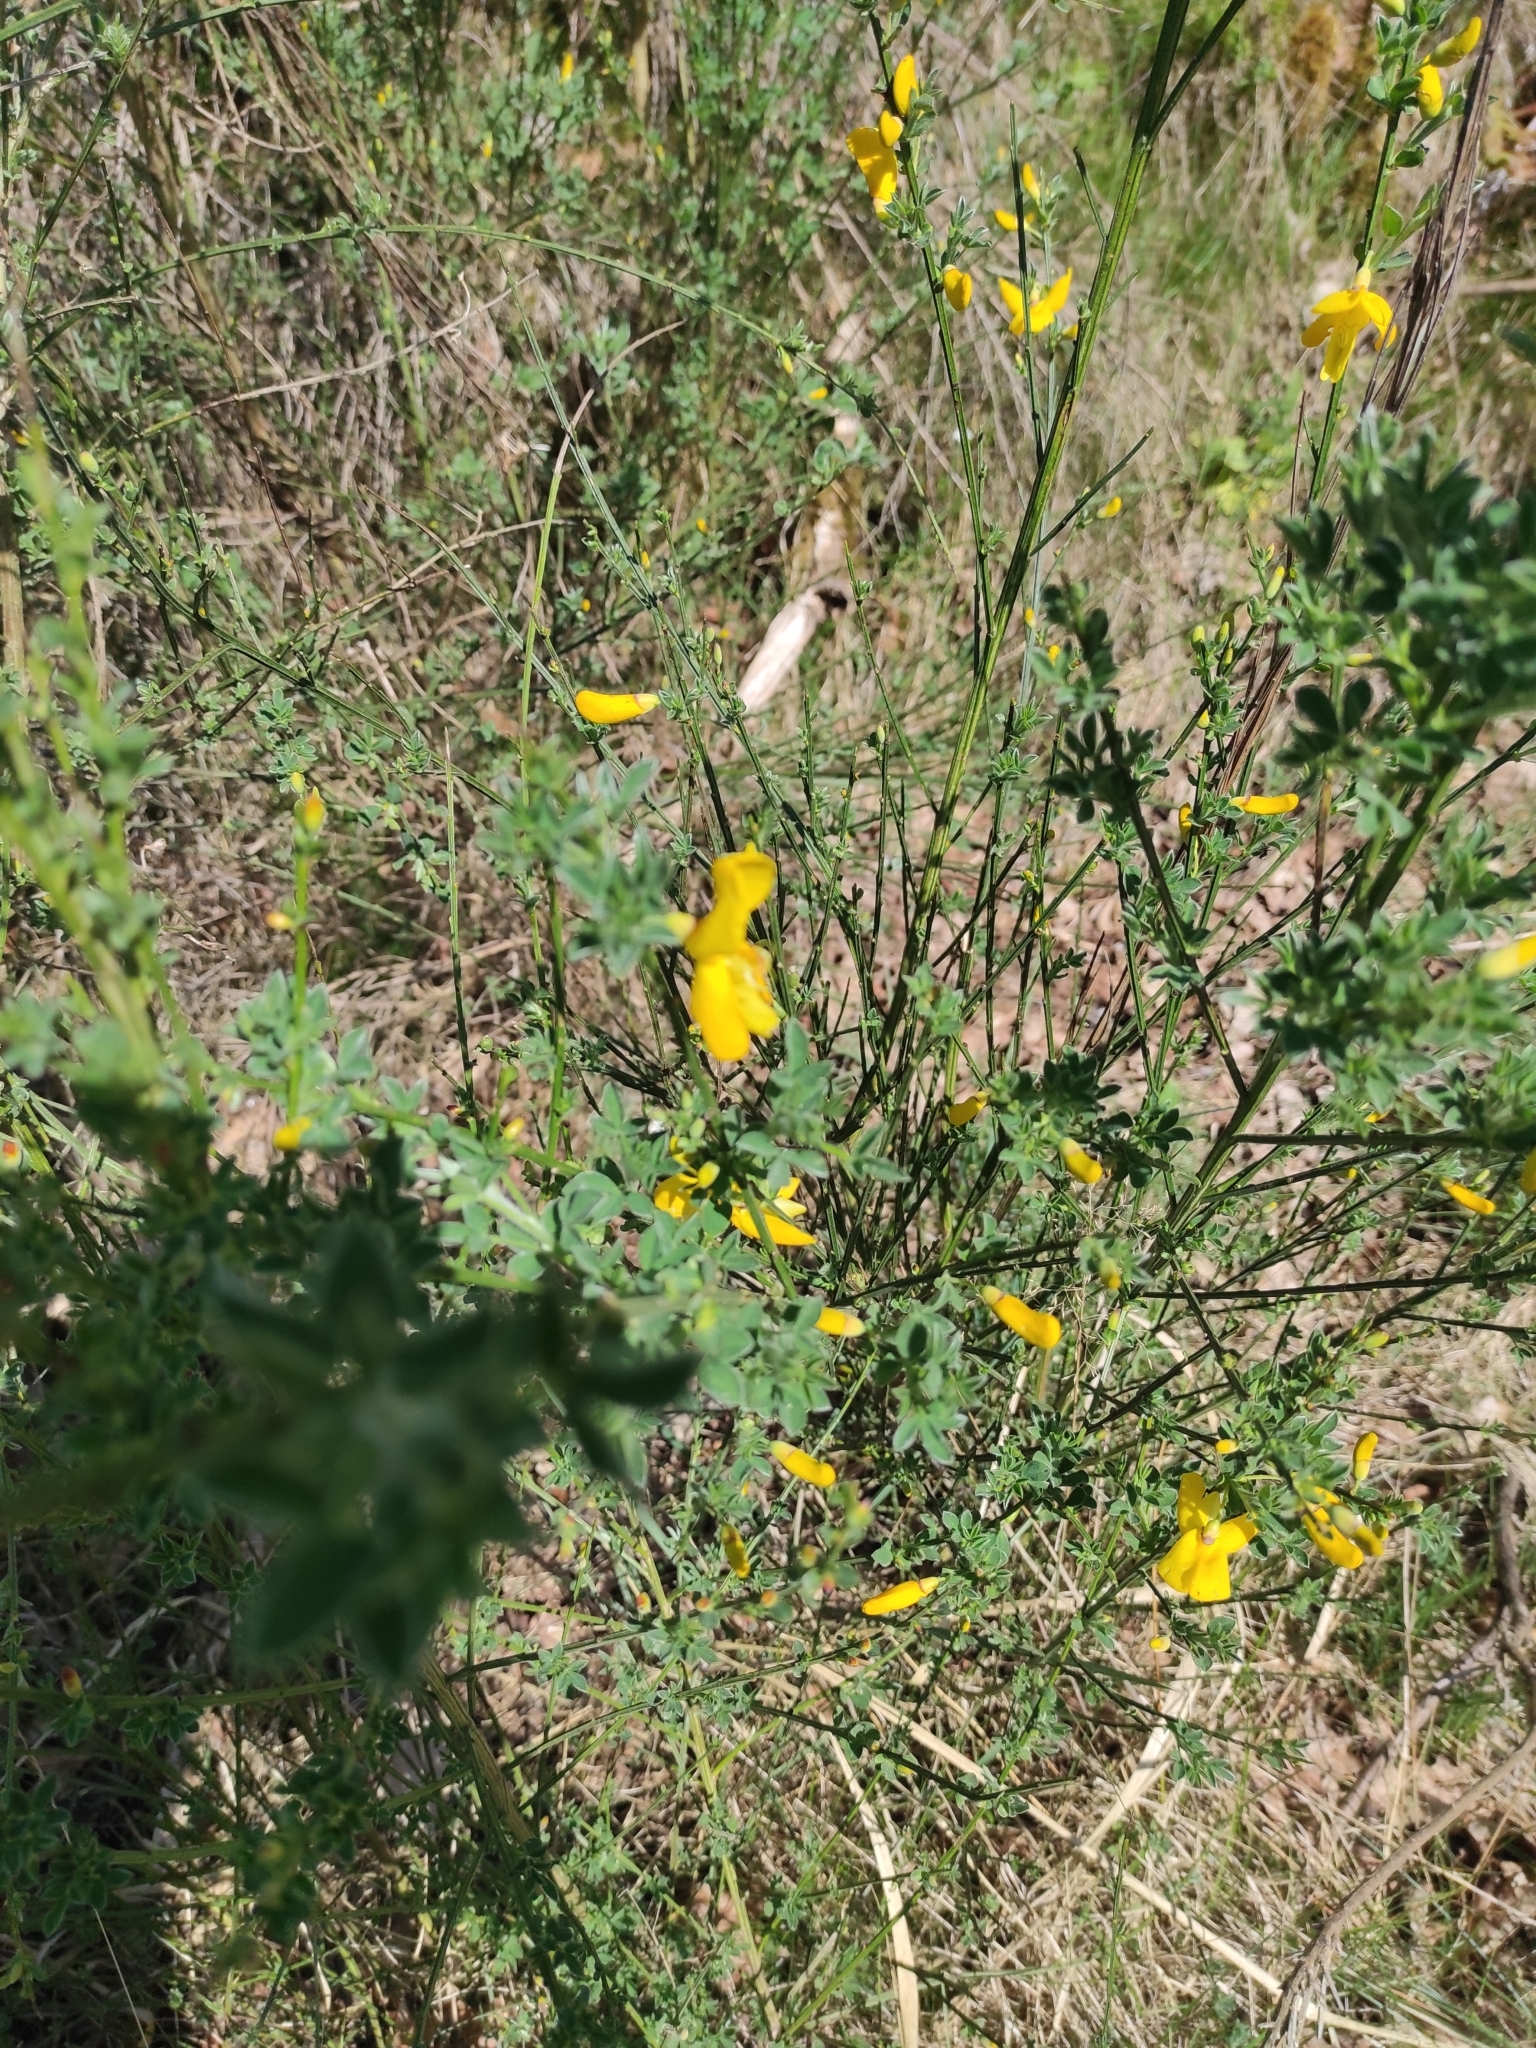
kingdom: Plantae
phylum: Tracheophyta
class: Magnoliopsida
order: Fabales
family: Fabaceae
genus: Cytisus
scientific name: Cytisus scoparius
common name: Scotch broom
